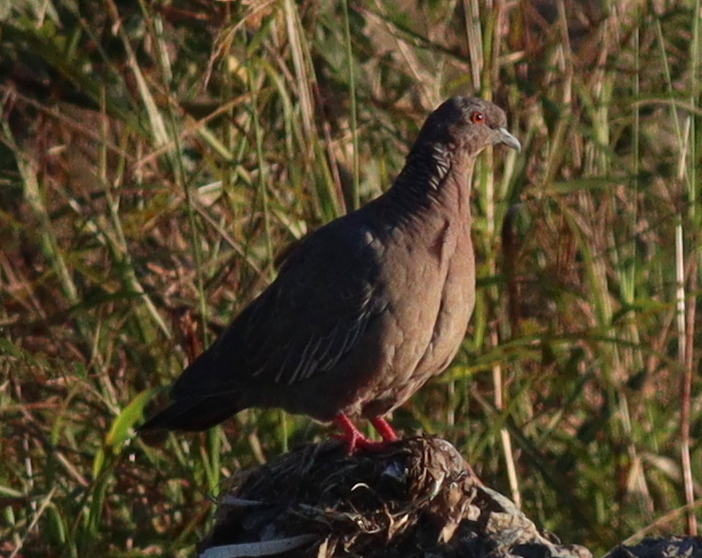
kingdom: Animalia
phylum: Chordata
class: Aves
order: Columbiformes
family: Columbidae
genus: Patagioenas
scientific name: Patagioenas picazuro
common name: Picazuro pigeon
